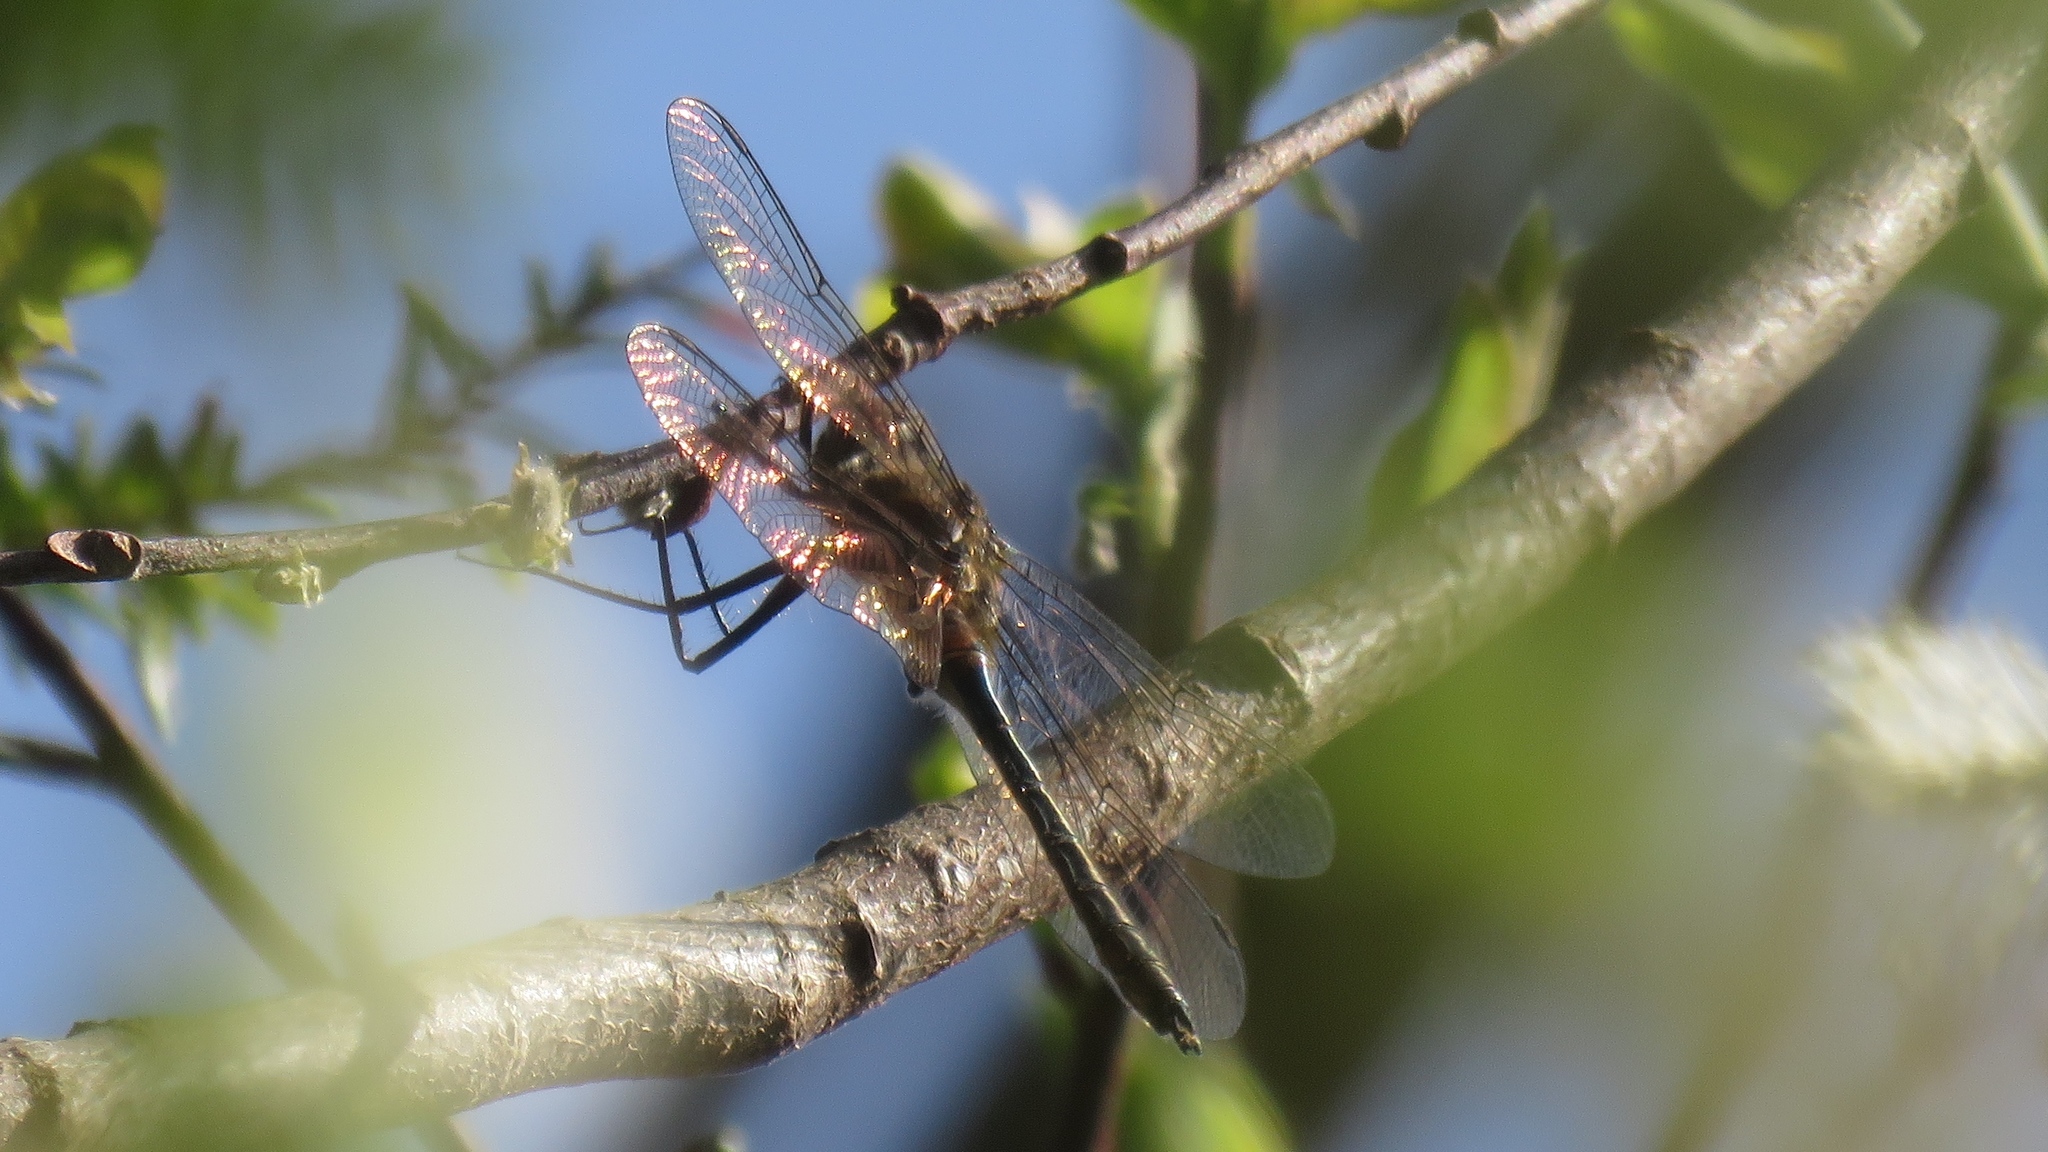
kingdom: Animalia
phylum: Arthropoda
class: Insecta
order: Odonata
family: Corduliidae
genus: Cordulia
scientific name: Cordulia shurtleffii
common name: American emerald
